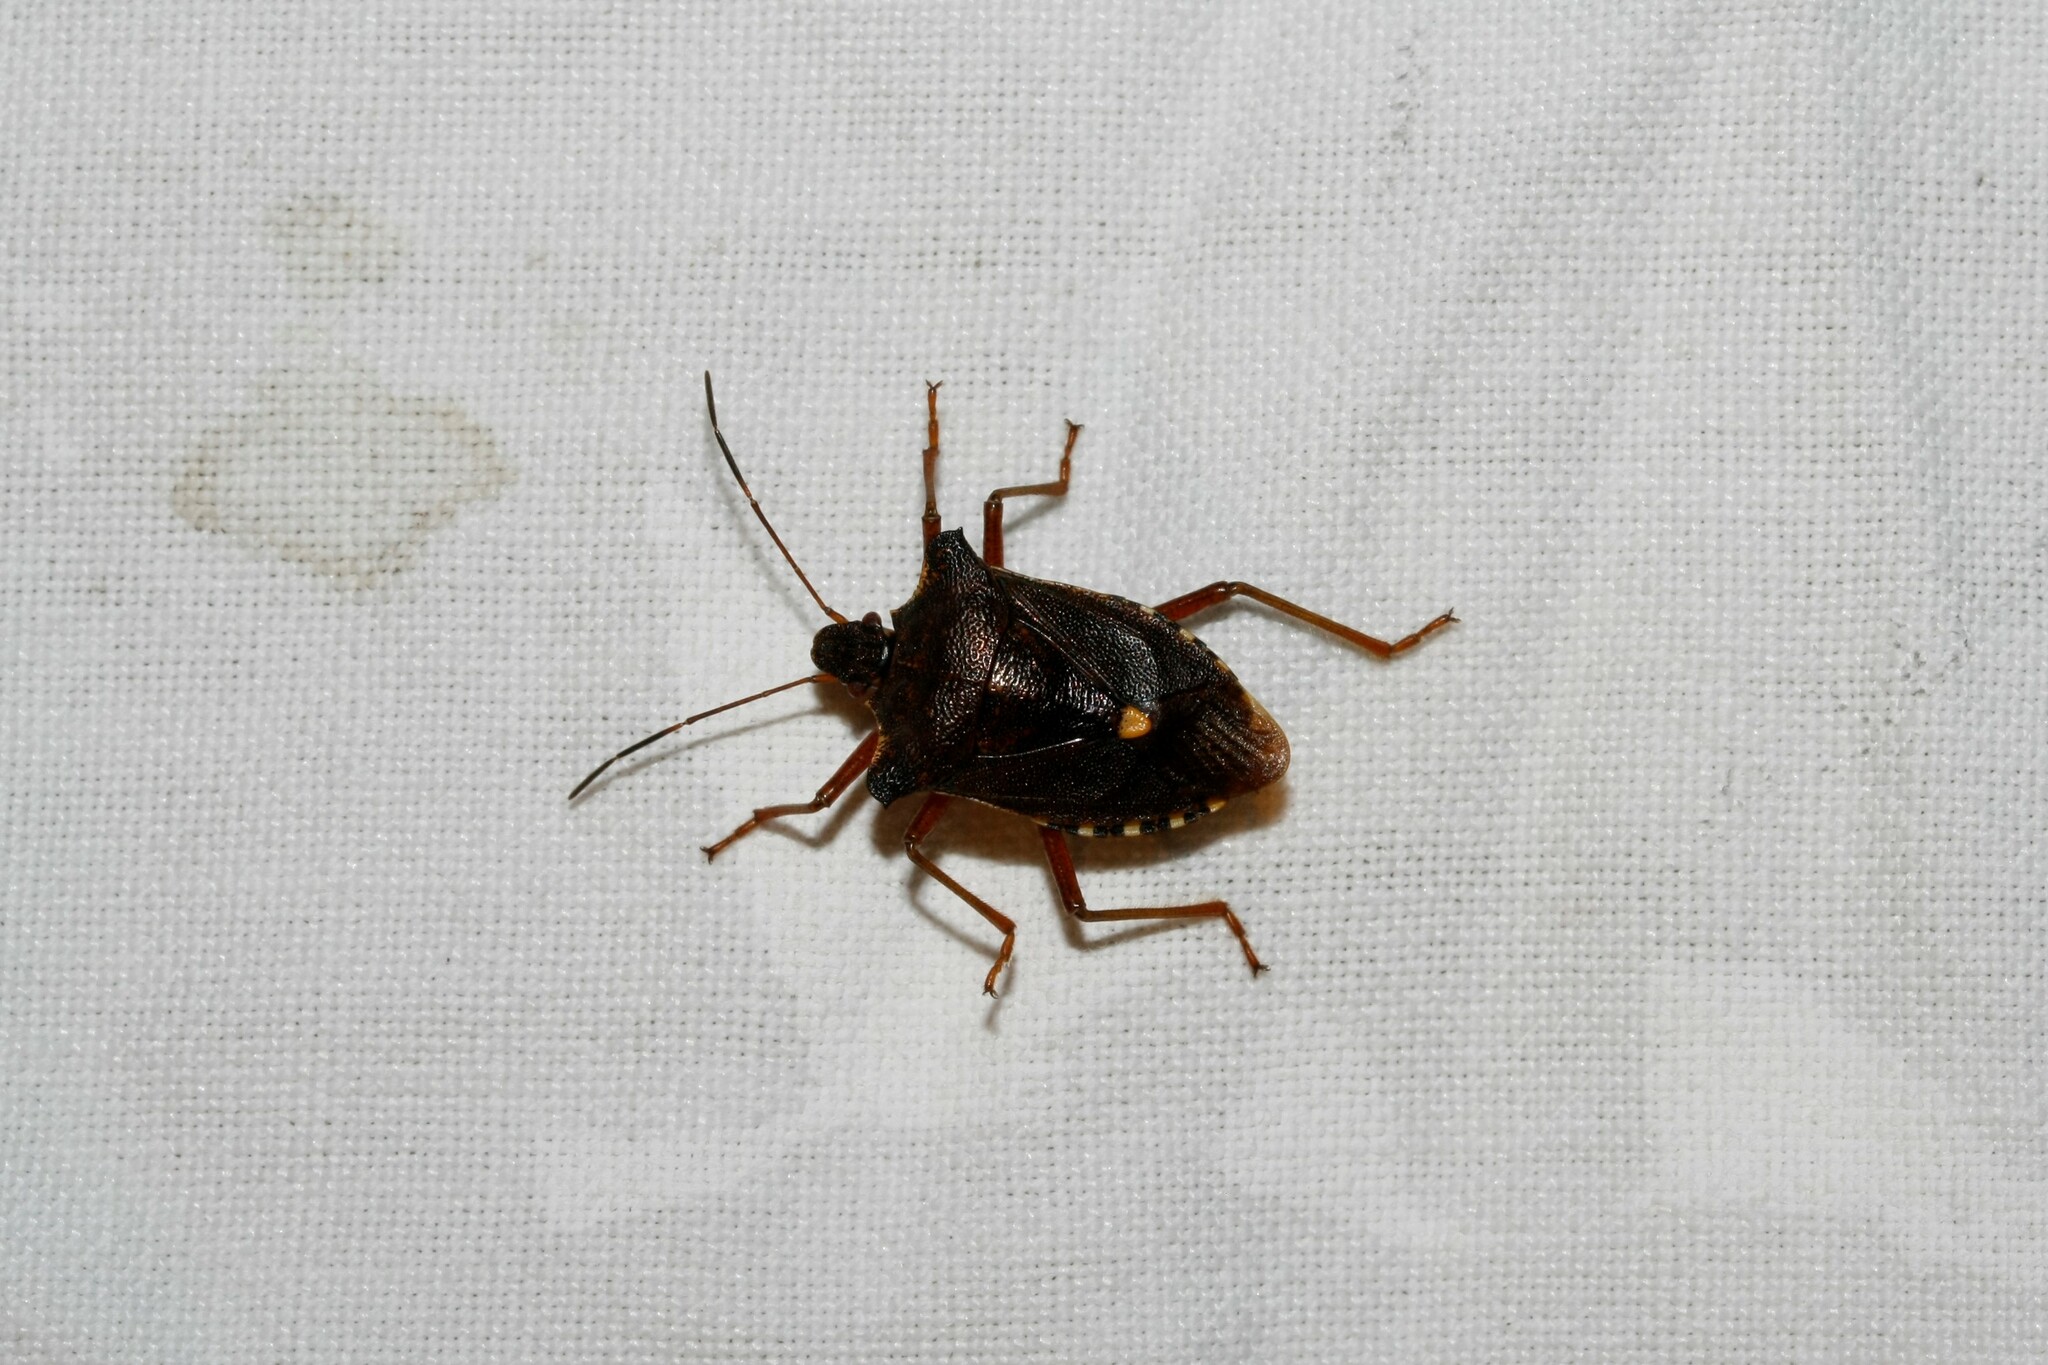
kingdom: Animalia
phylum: Arthropoda
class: Insecta
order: Hemiptera
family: Pentatomidae
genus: Pentatoma
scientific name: Pentatoma rufipes
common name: Forest bug
